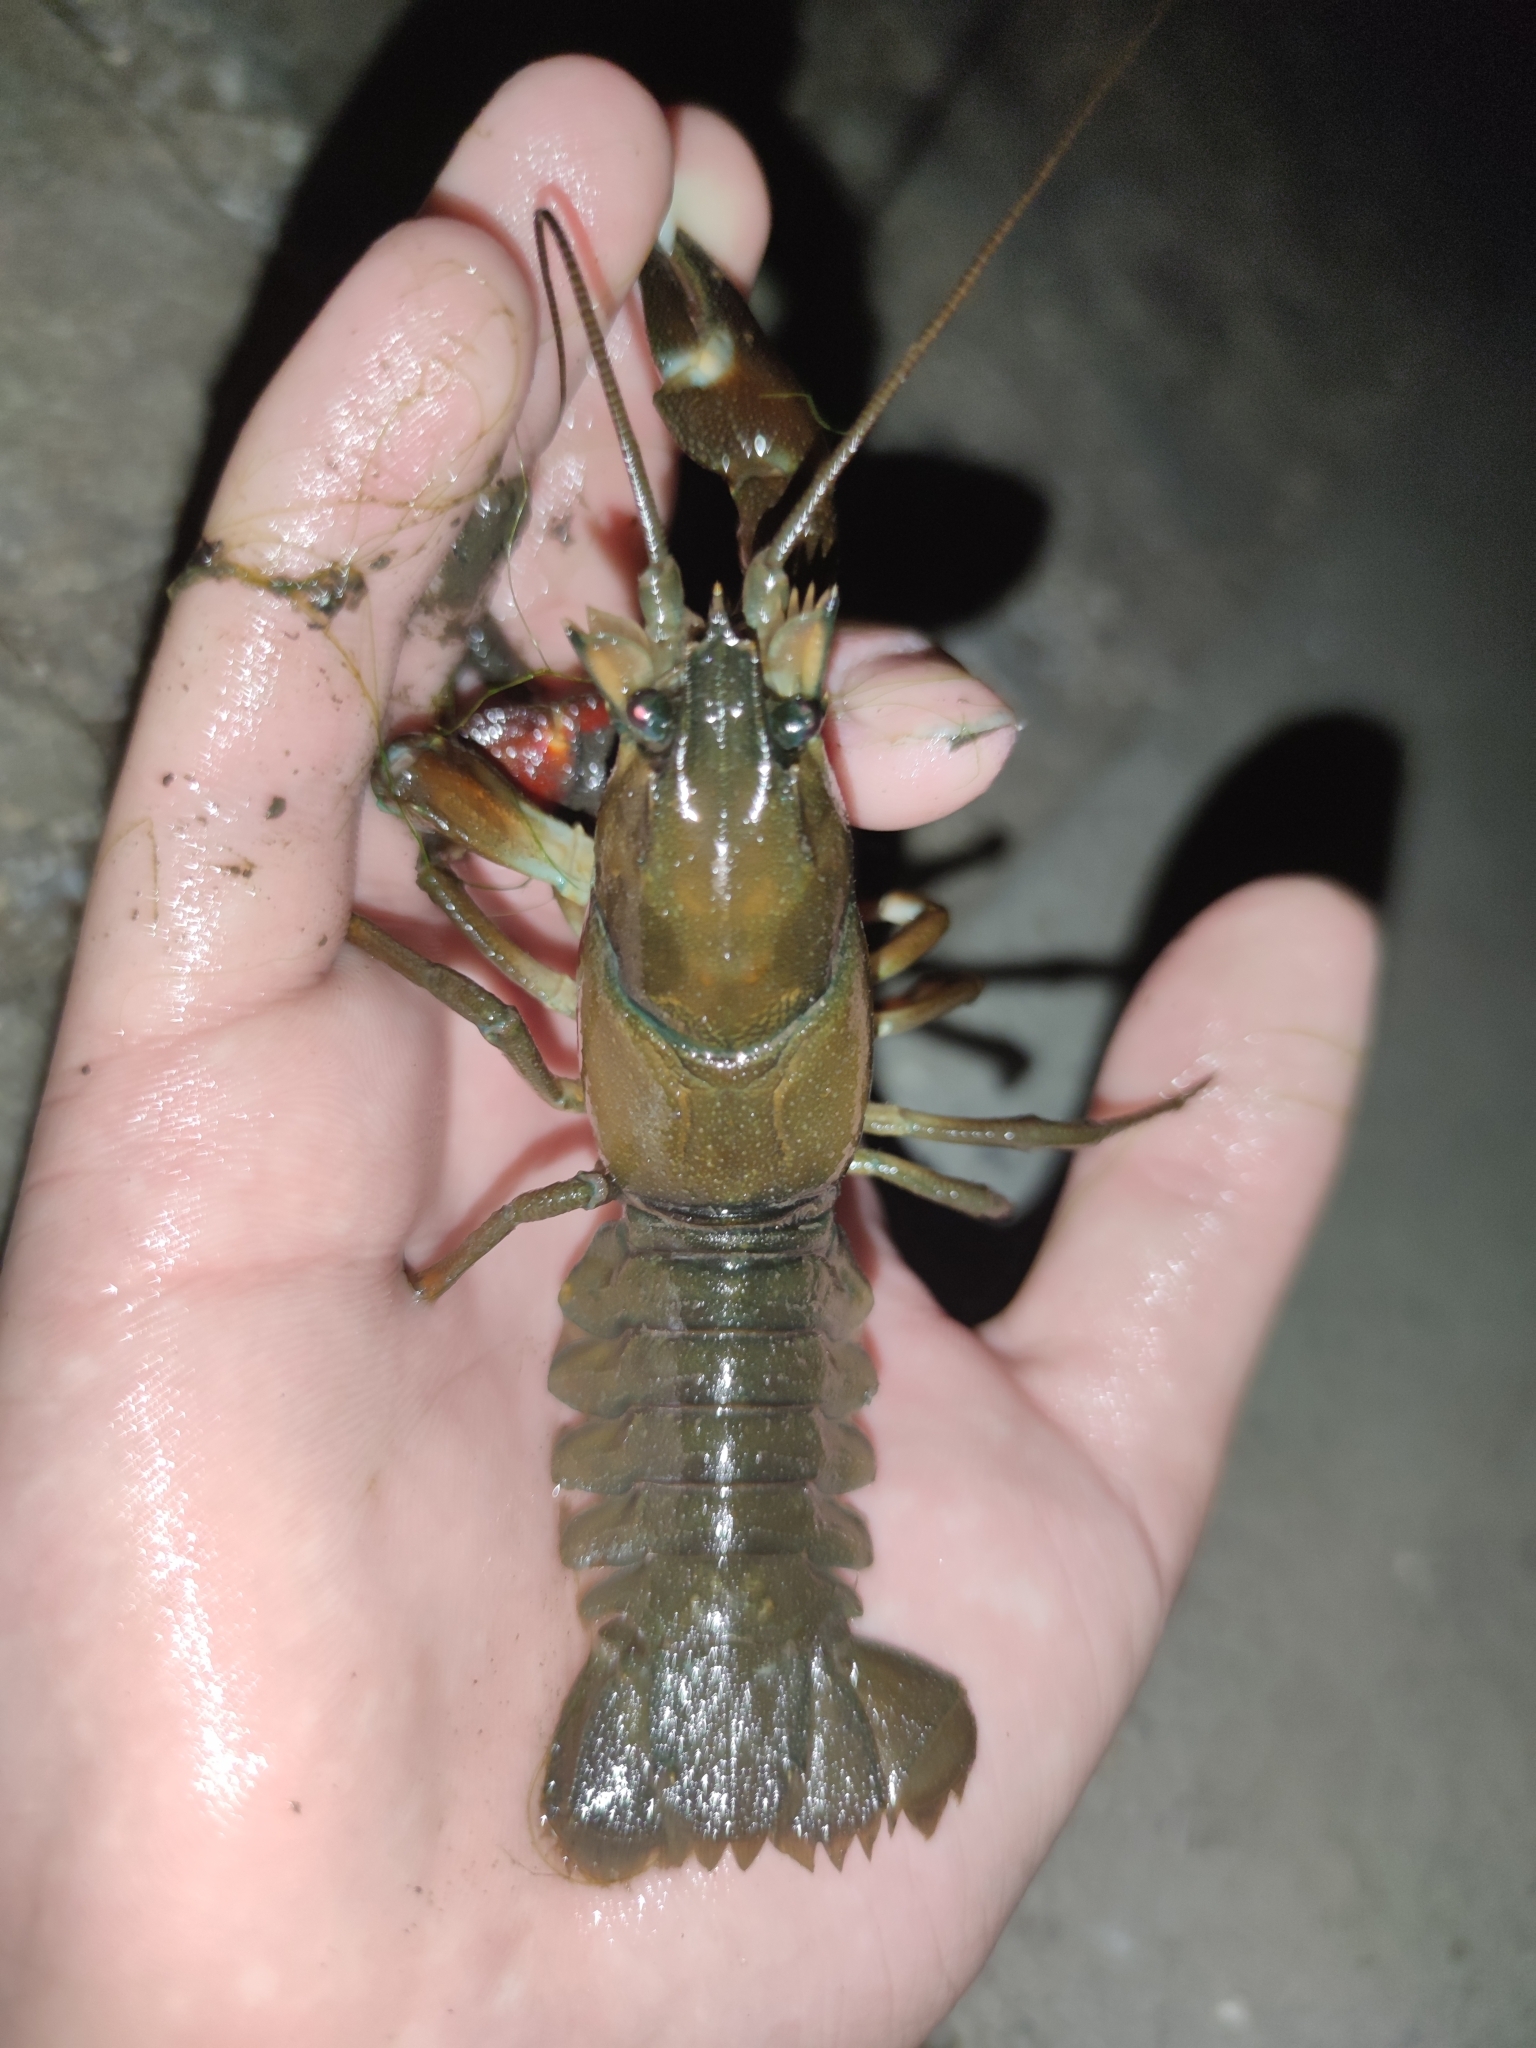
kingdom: Animalia
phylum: Arthropoda
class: Malacostraca
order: Decapoda
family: Astacidae
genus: Pacifastacus
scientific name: Pacifastacus leniusculus
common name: Signal crayfish
